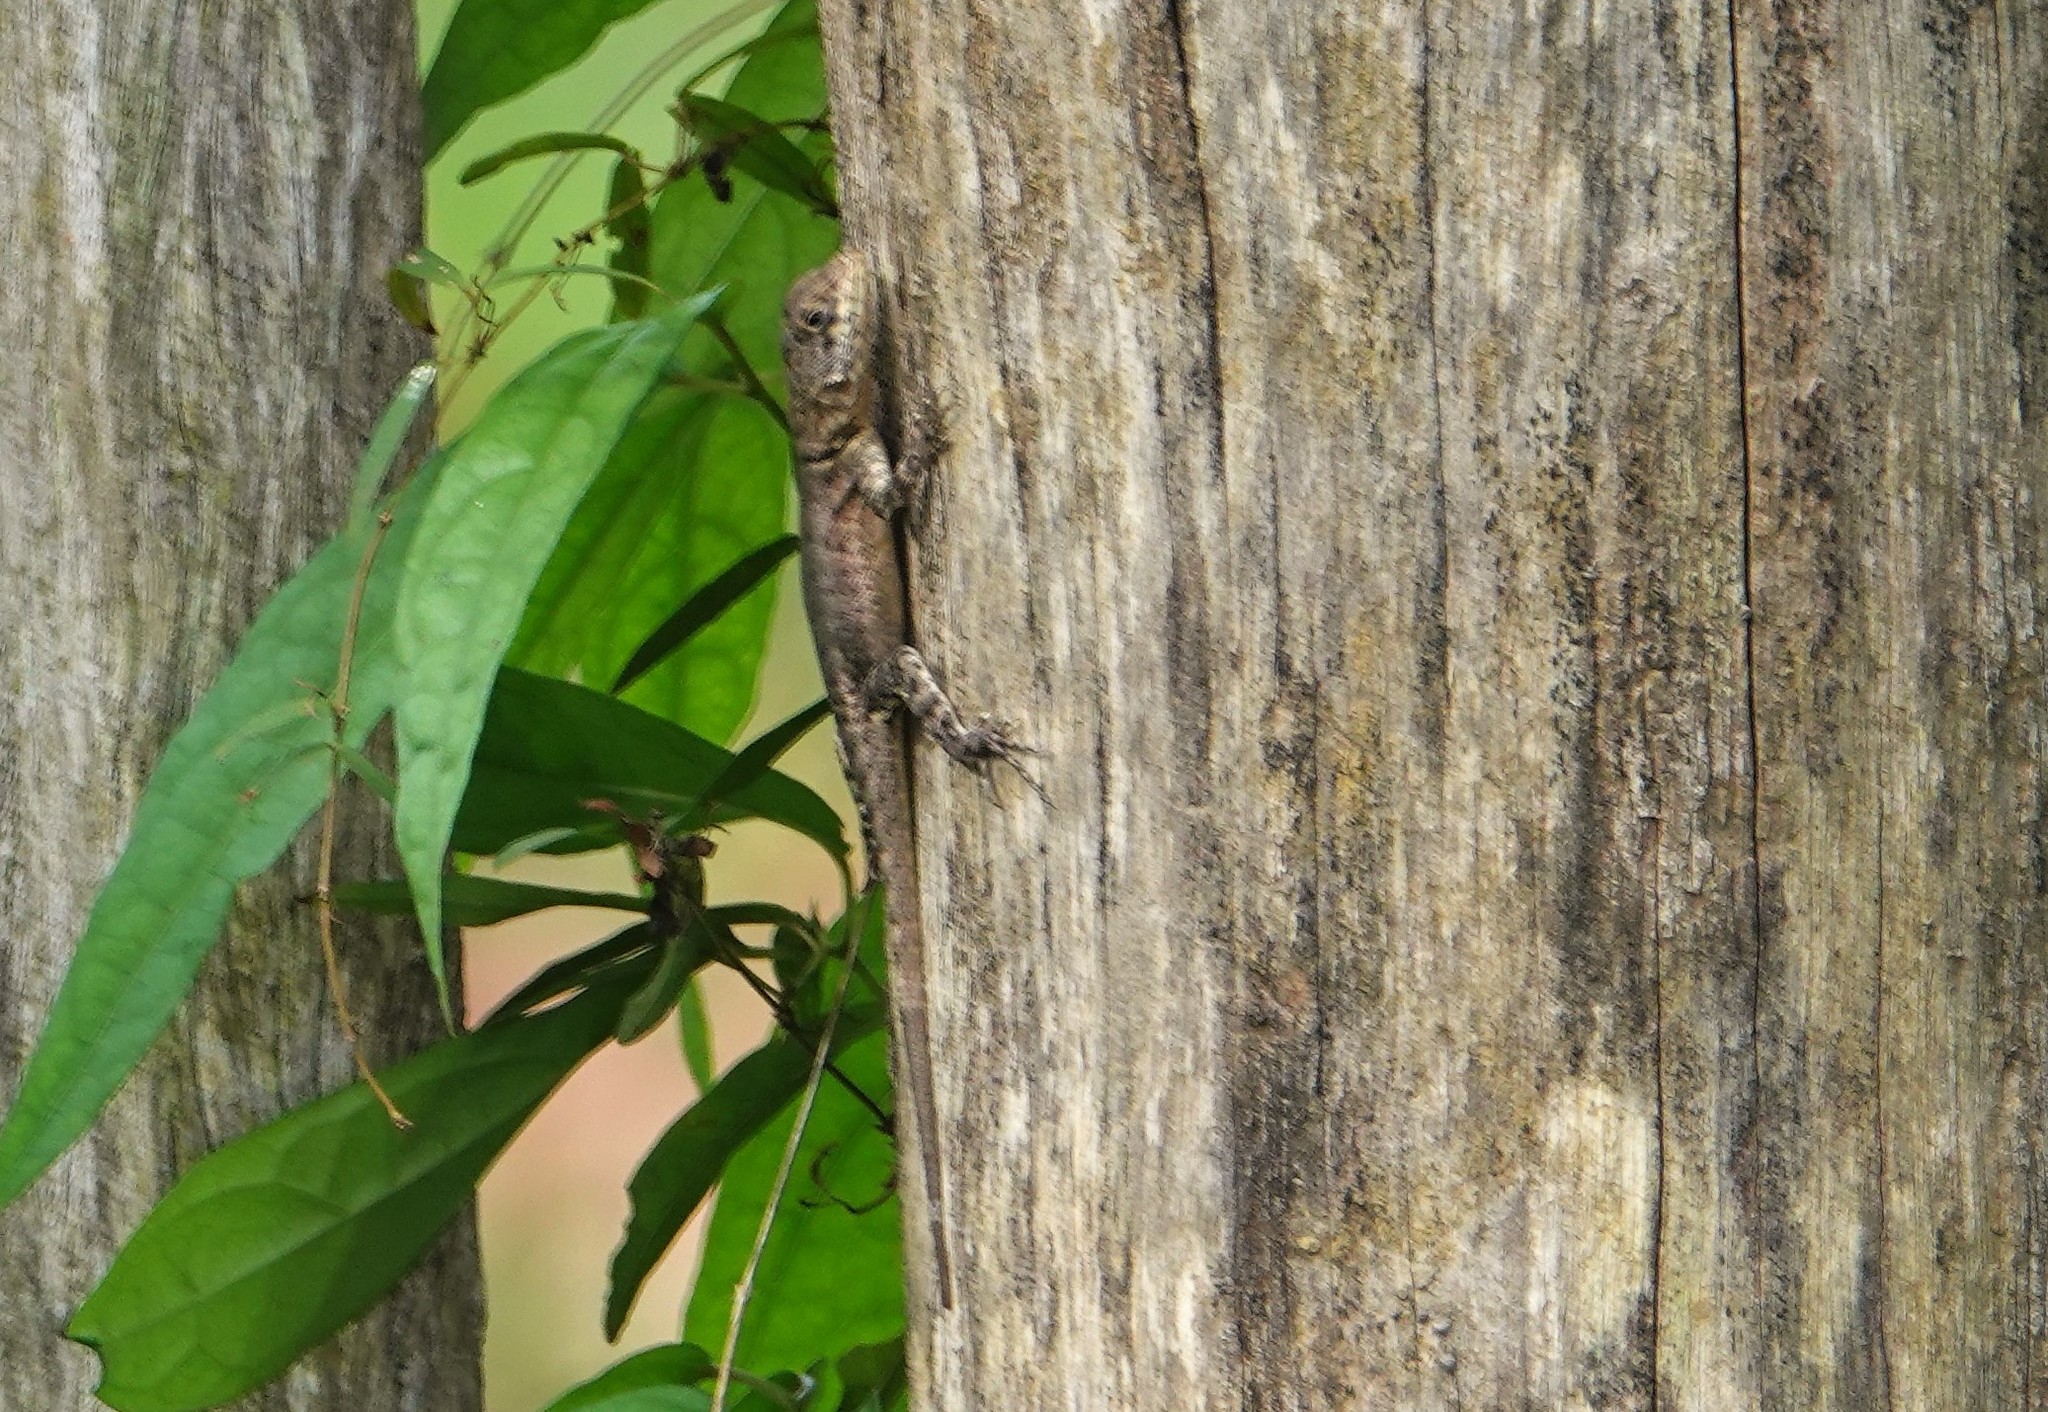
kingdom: Animalia
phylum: Chordata
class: Squamata
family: Tropiduridae
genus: Tropidurus
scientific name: Tropidurus hispidus
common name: Peters' lava lizard
